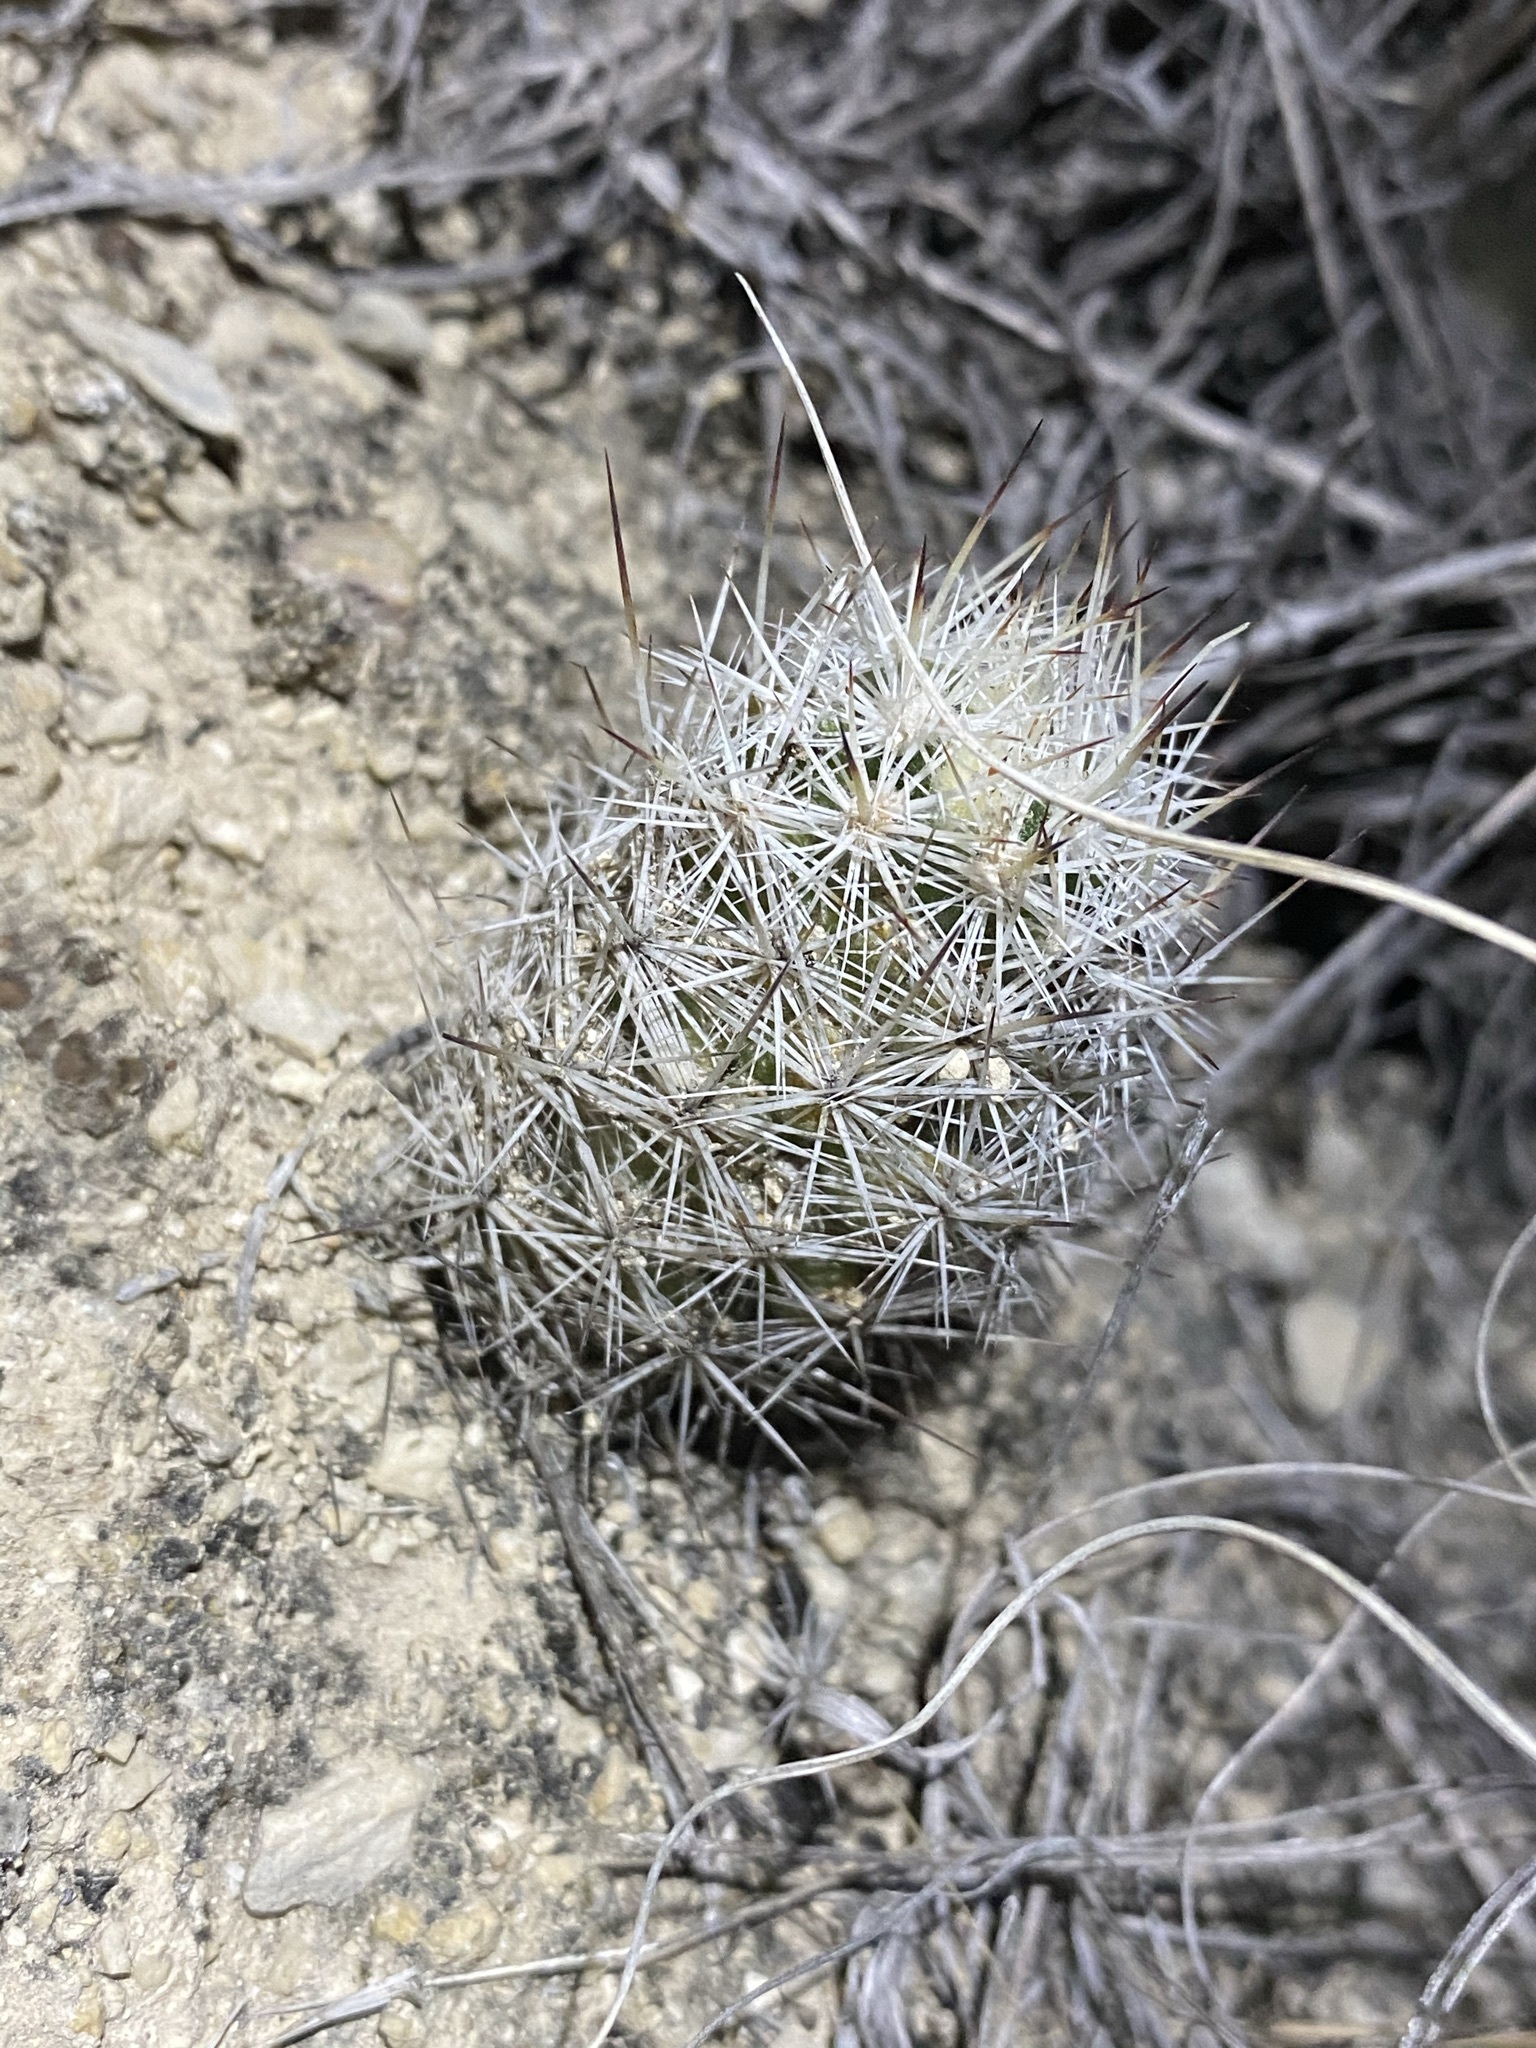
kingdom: Plantae
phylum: Tracheophyta
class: Magnoliopsida
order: Caryophyllales
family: Cactaceae
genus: Cochemiea
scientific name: Cochemiea conoidea
